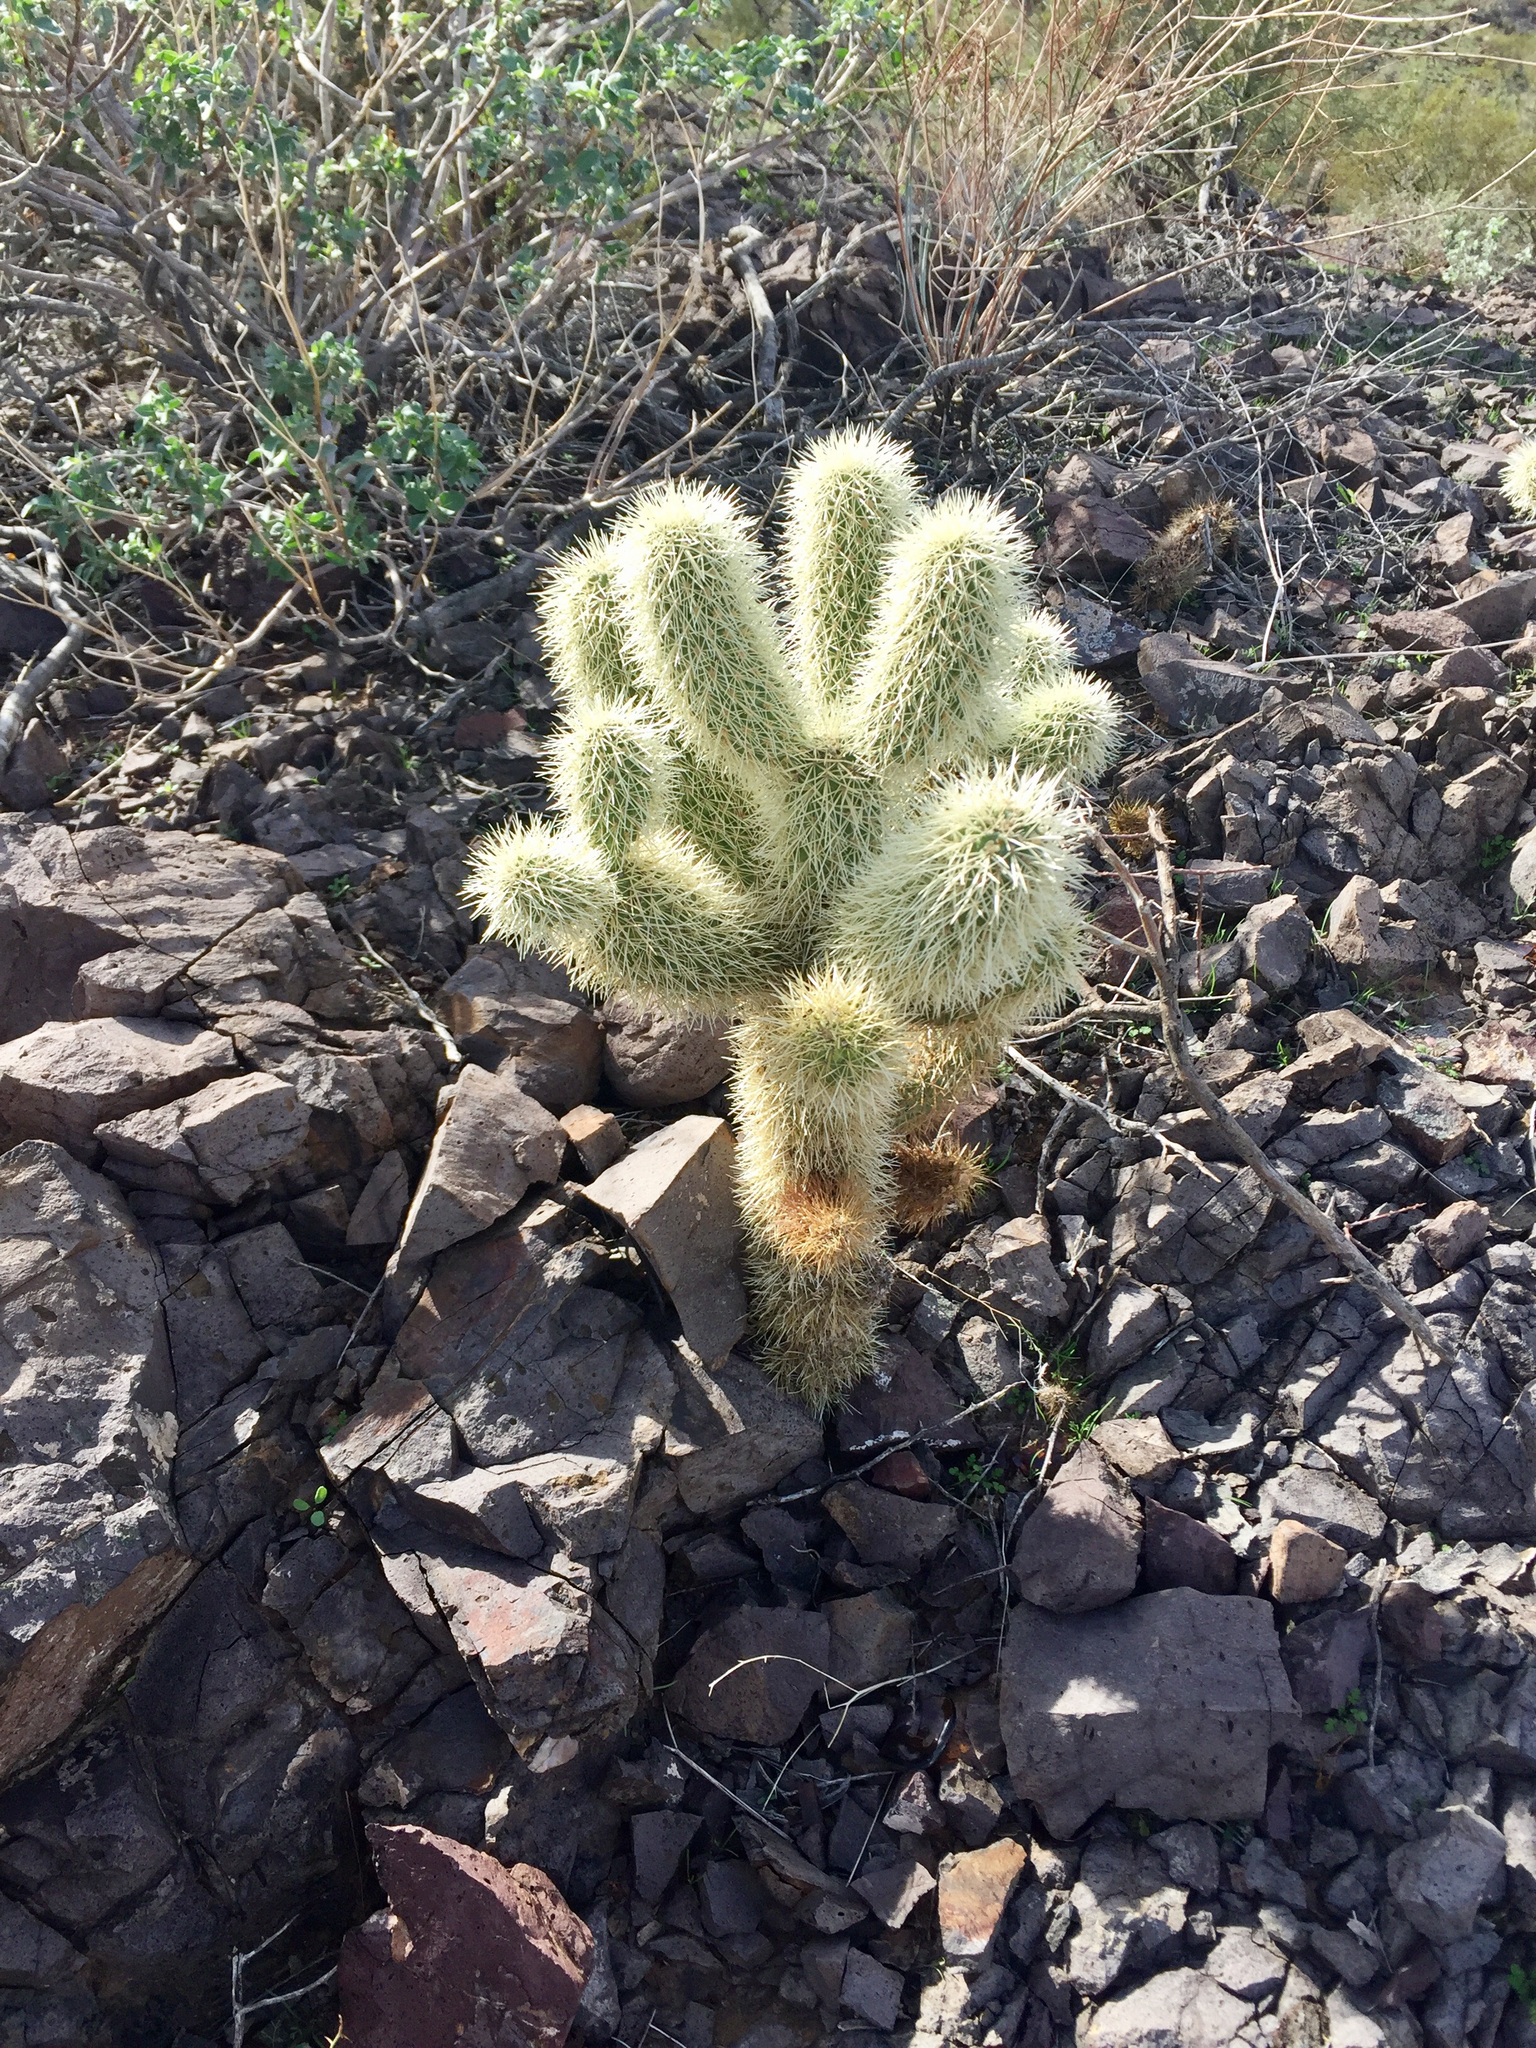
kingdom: Plantae
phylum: Tracheophyta
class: Magnoliopsida
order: Caryophyllales
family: Cactaceae
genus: Cylindropuntia
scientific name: Cylindropuntia fosbergii
